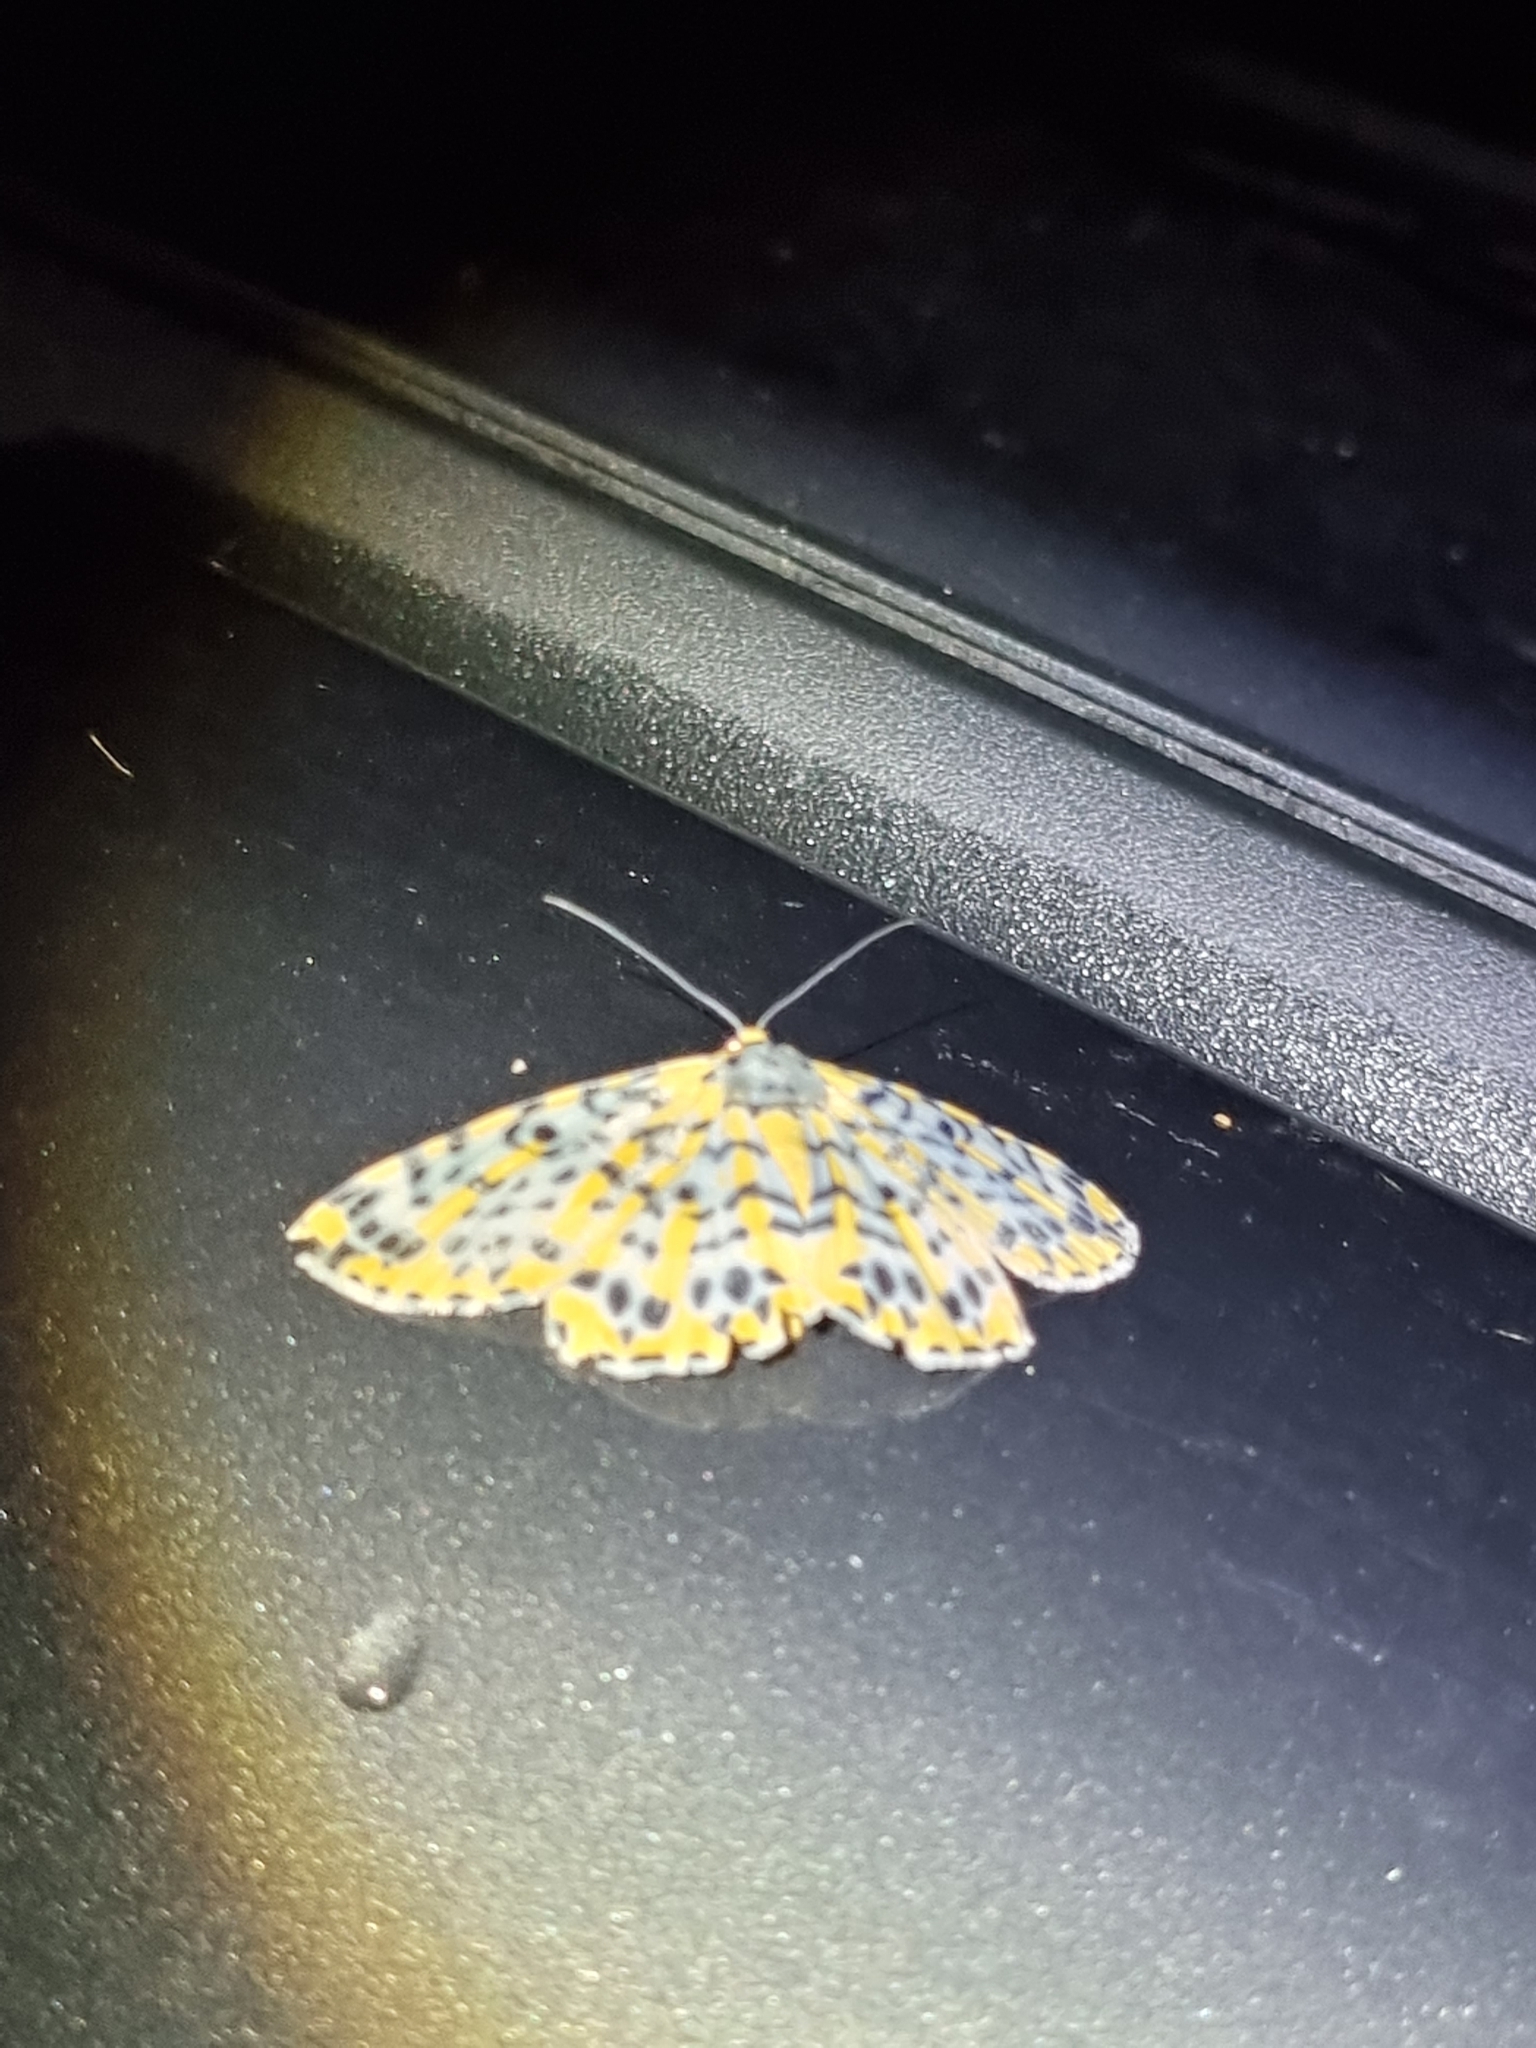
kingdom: Animalia
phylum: Arthropoda
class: Insecta
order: Lepidoptera
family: Geometridae
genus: Bracca
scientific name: Bracca matutinata
